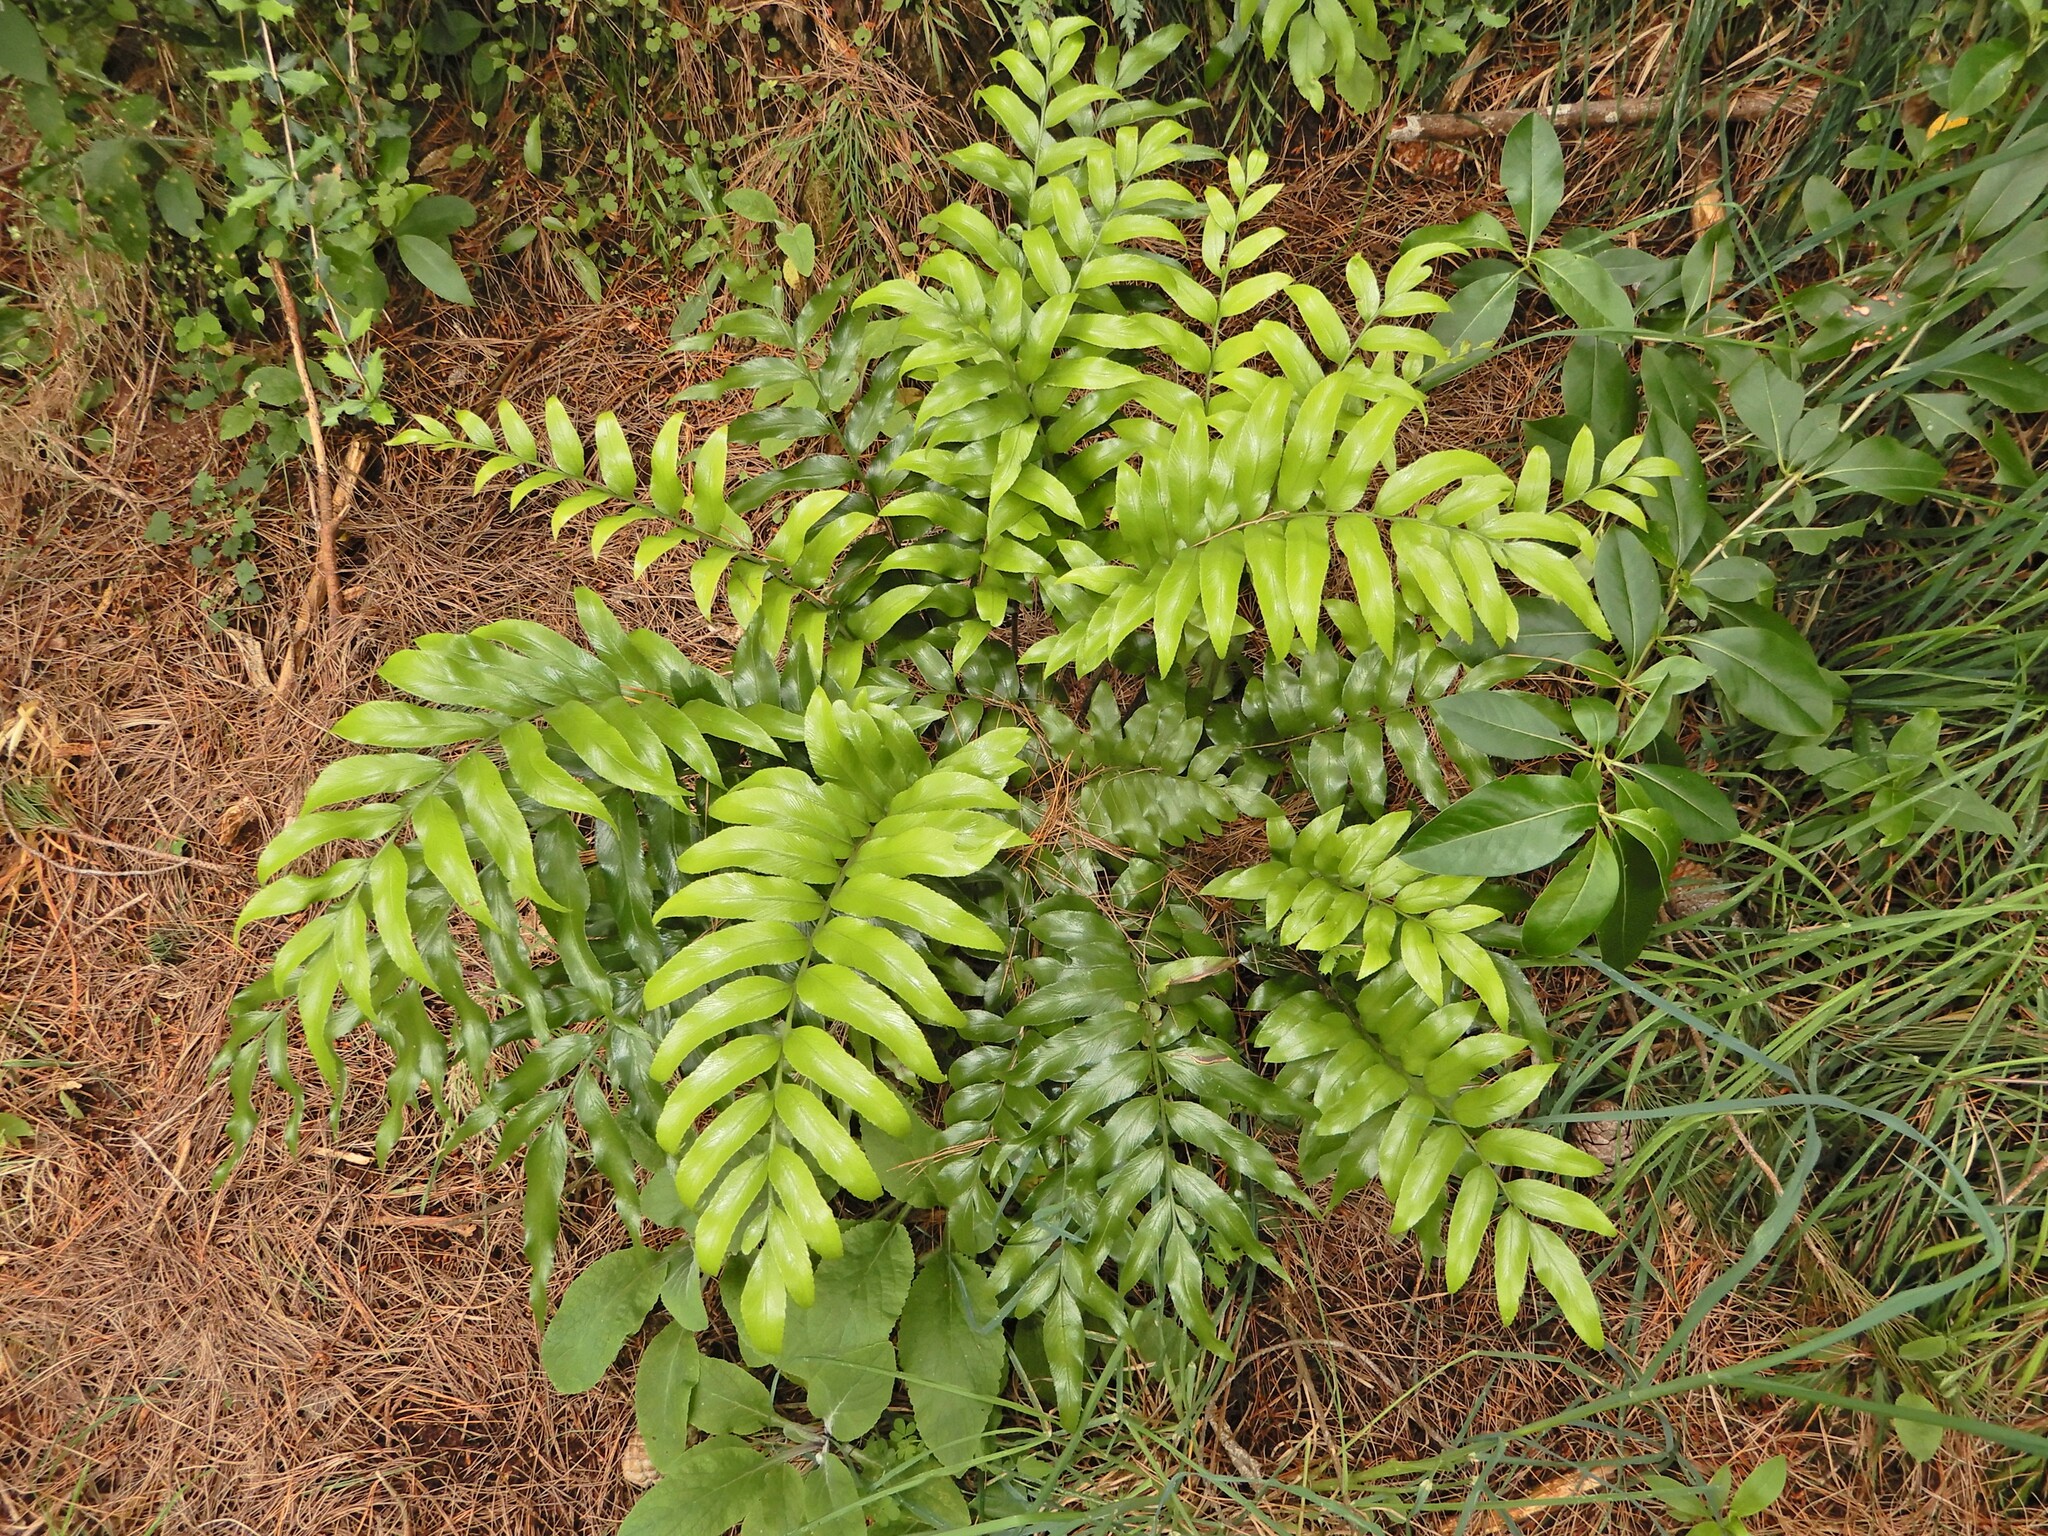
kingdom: Plantae
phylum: Tracheophyta
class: Polypodiopsida
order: Polypodiales
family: Aspleniaceae
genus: Asplenium
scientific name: Asplenium oblongifolium
